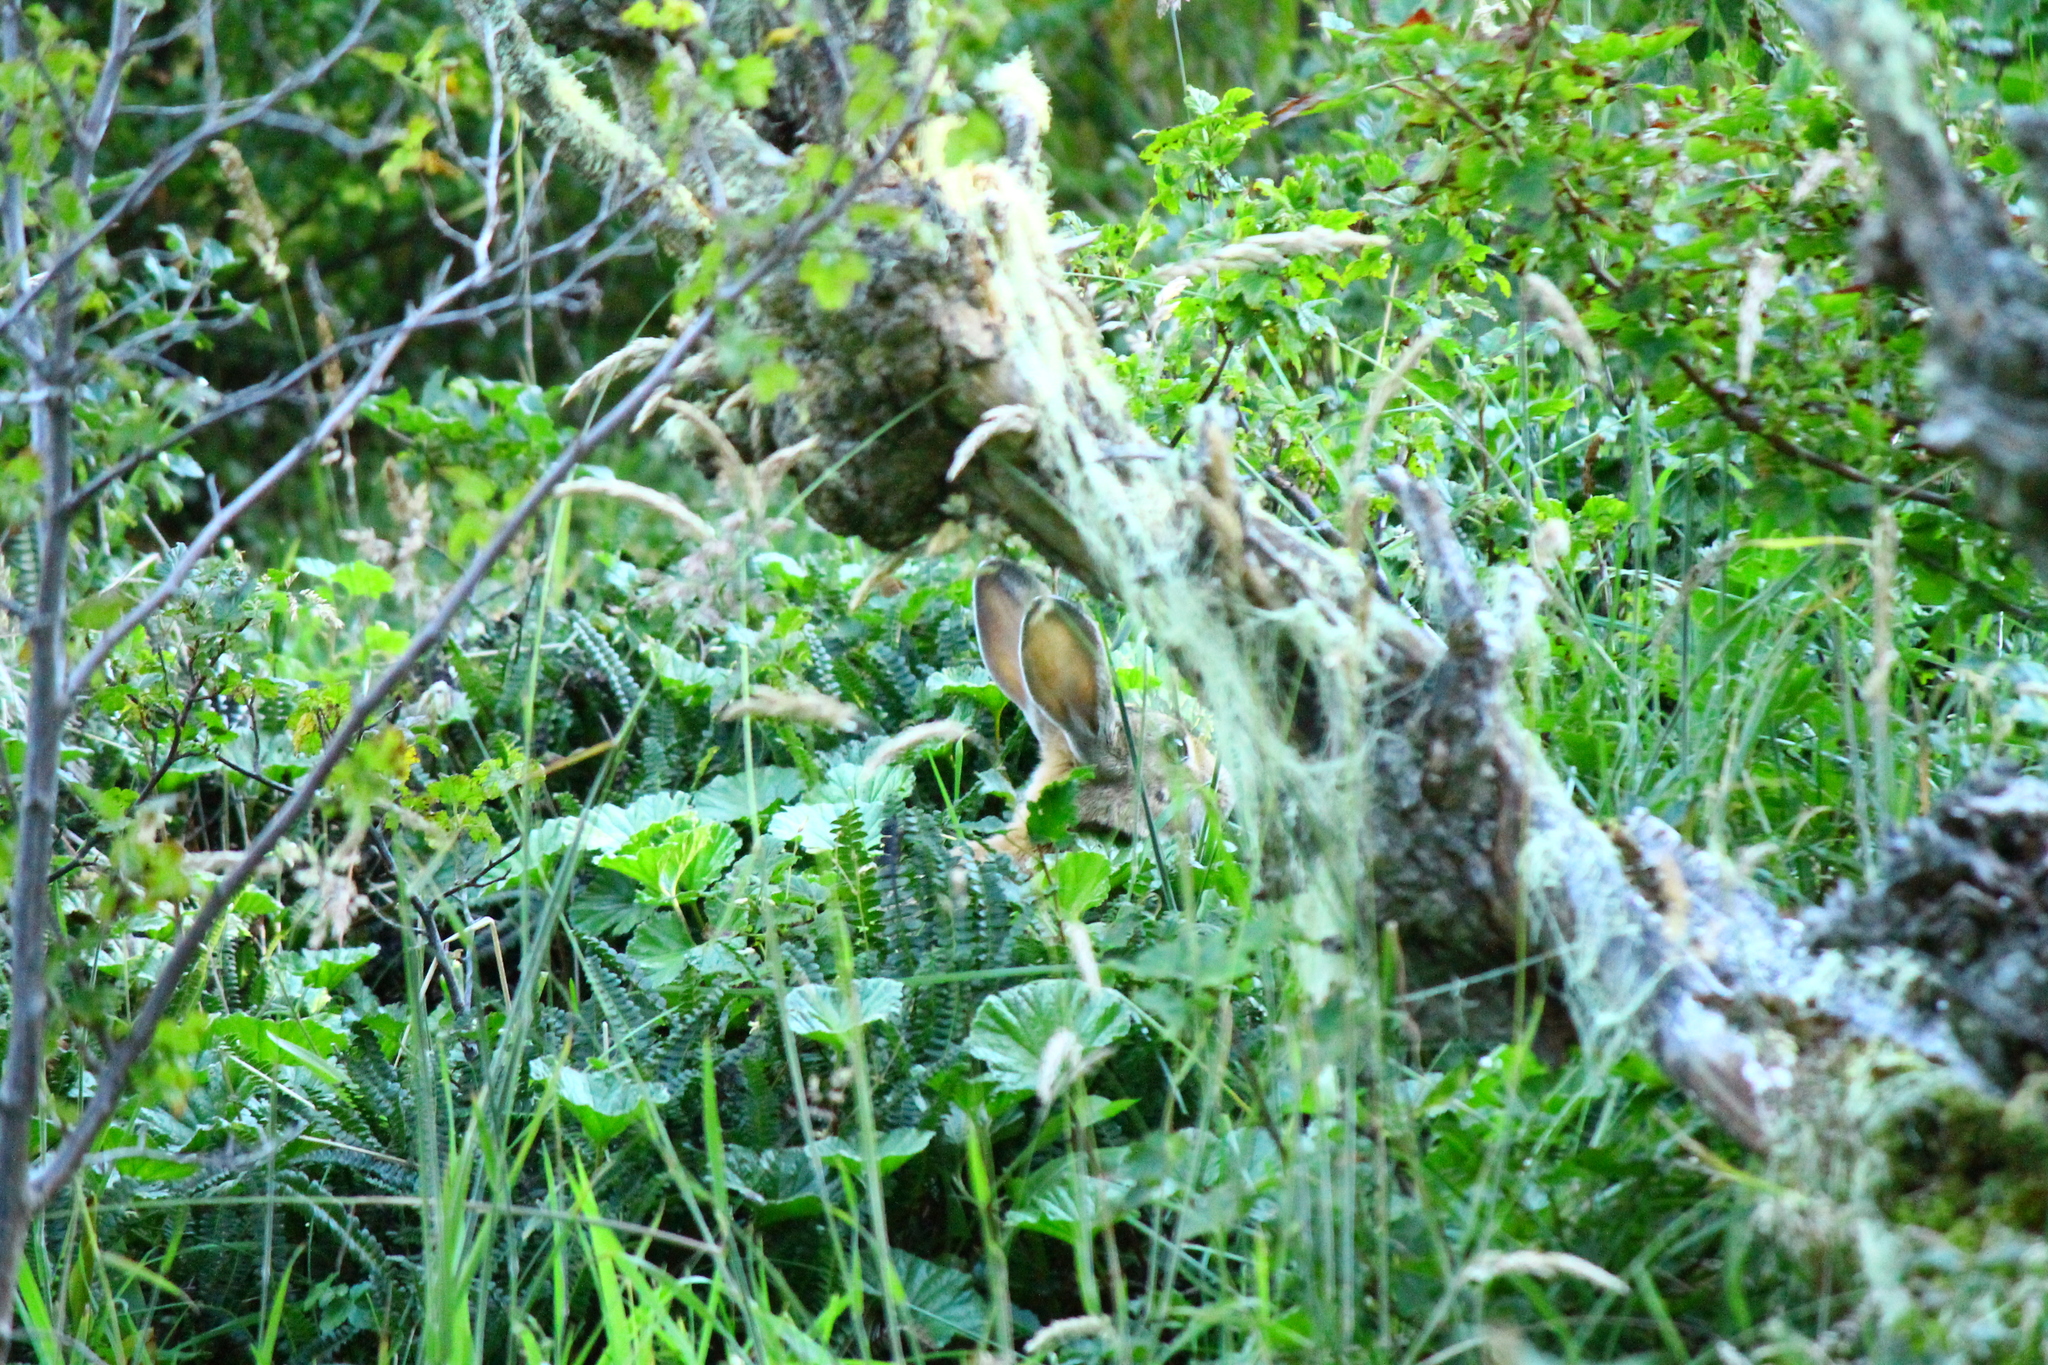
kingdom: Animalia
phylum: Chordata
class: Mammalia
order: Lagomorpha
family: Leporidae
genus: Oryctolagus
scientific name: Oryctolagus cuniculus
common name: European rabbit
